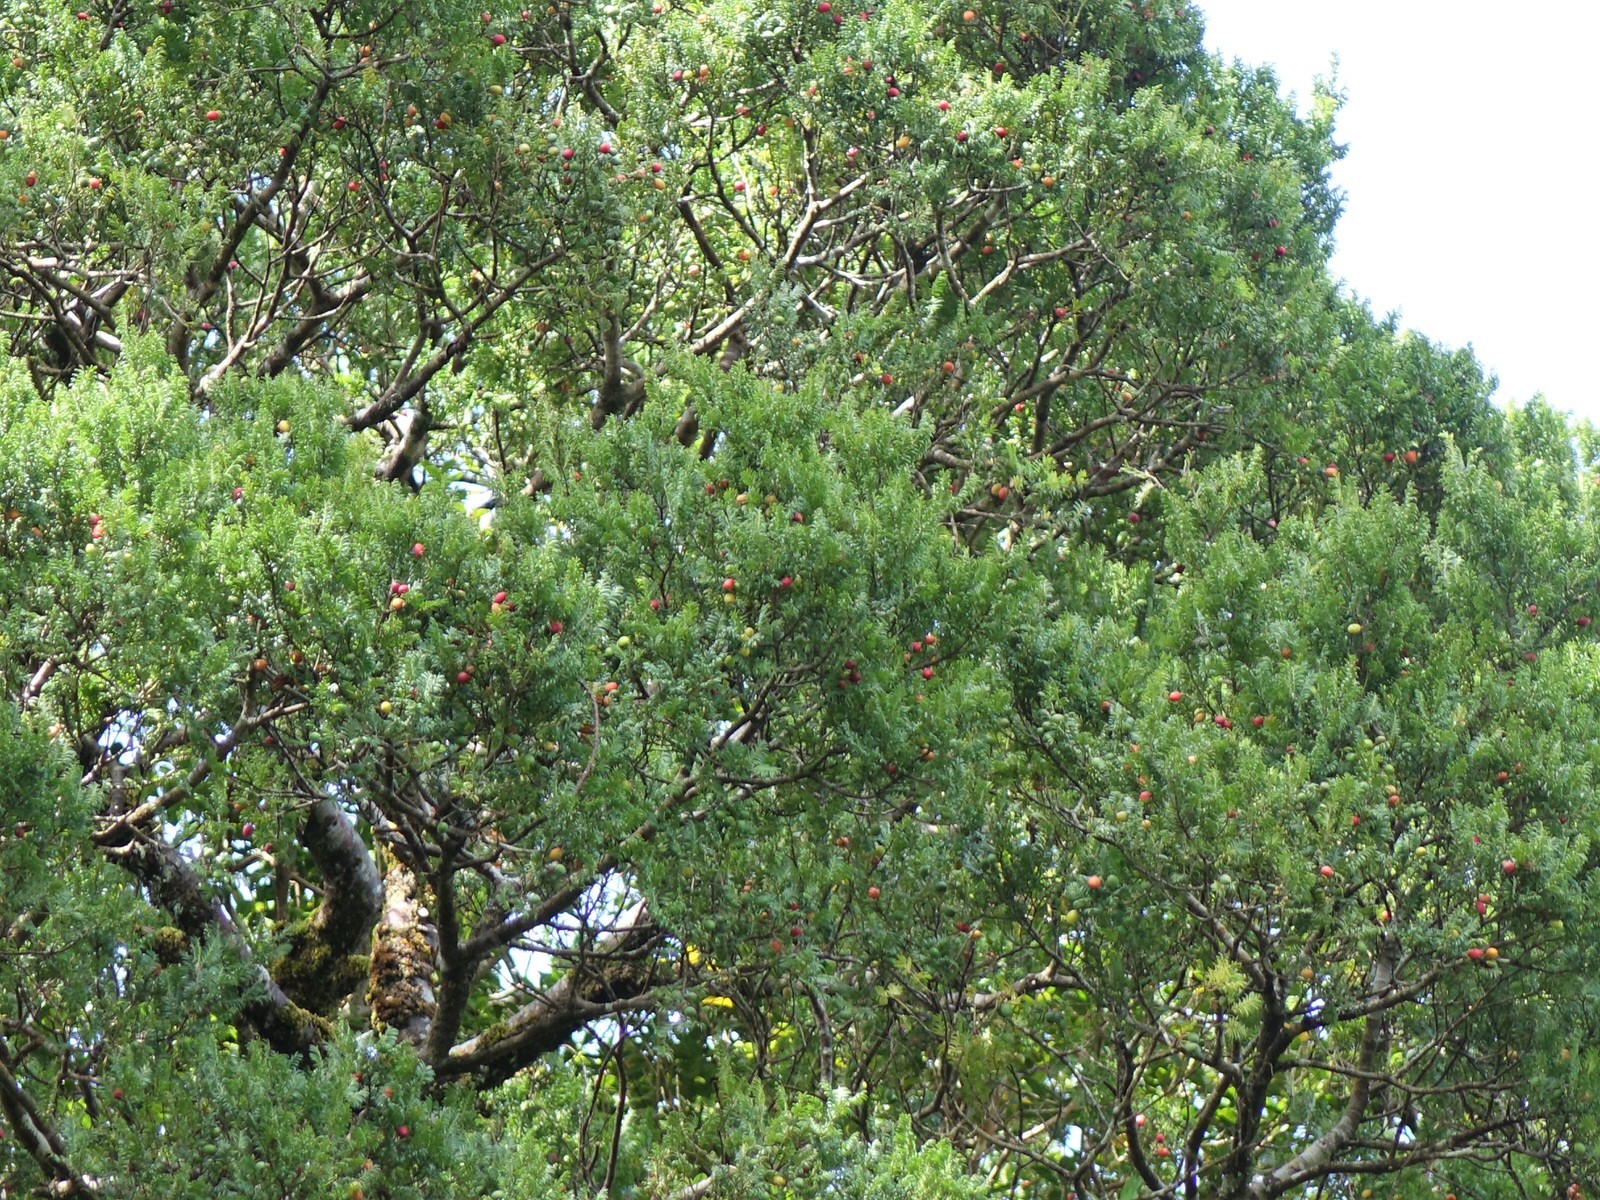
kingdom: Plantae
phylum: Tracheophyta
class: Pinopsida
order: Pinales
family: Podocarpaceae
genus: Prumnopitys
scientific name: Prumnopitys ferruginea
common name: Brown pine
